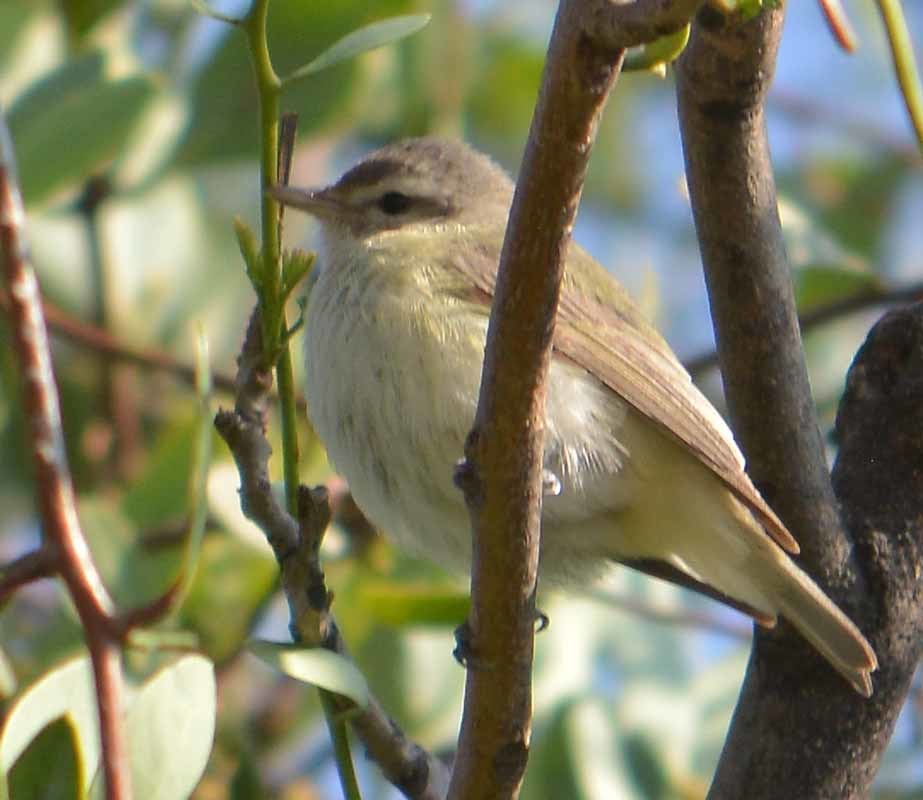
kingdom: Animalia
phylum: Chordata
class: Aves
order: Passeriformes
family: Vireonidae
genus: Vireo
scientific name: Vireo gilvus
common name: Warbling vireo
